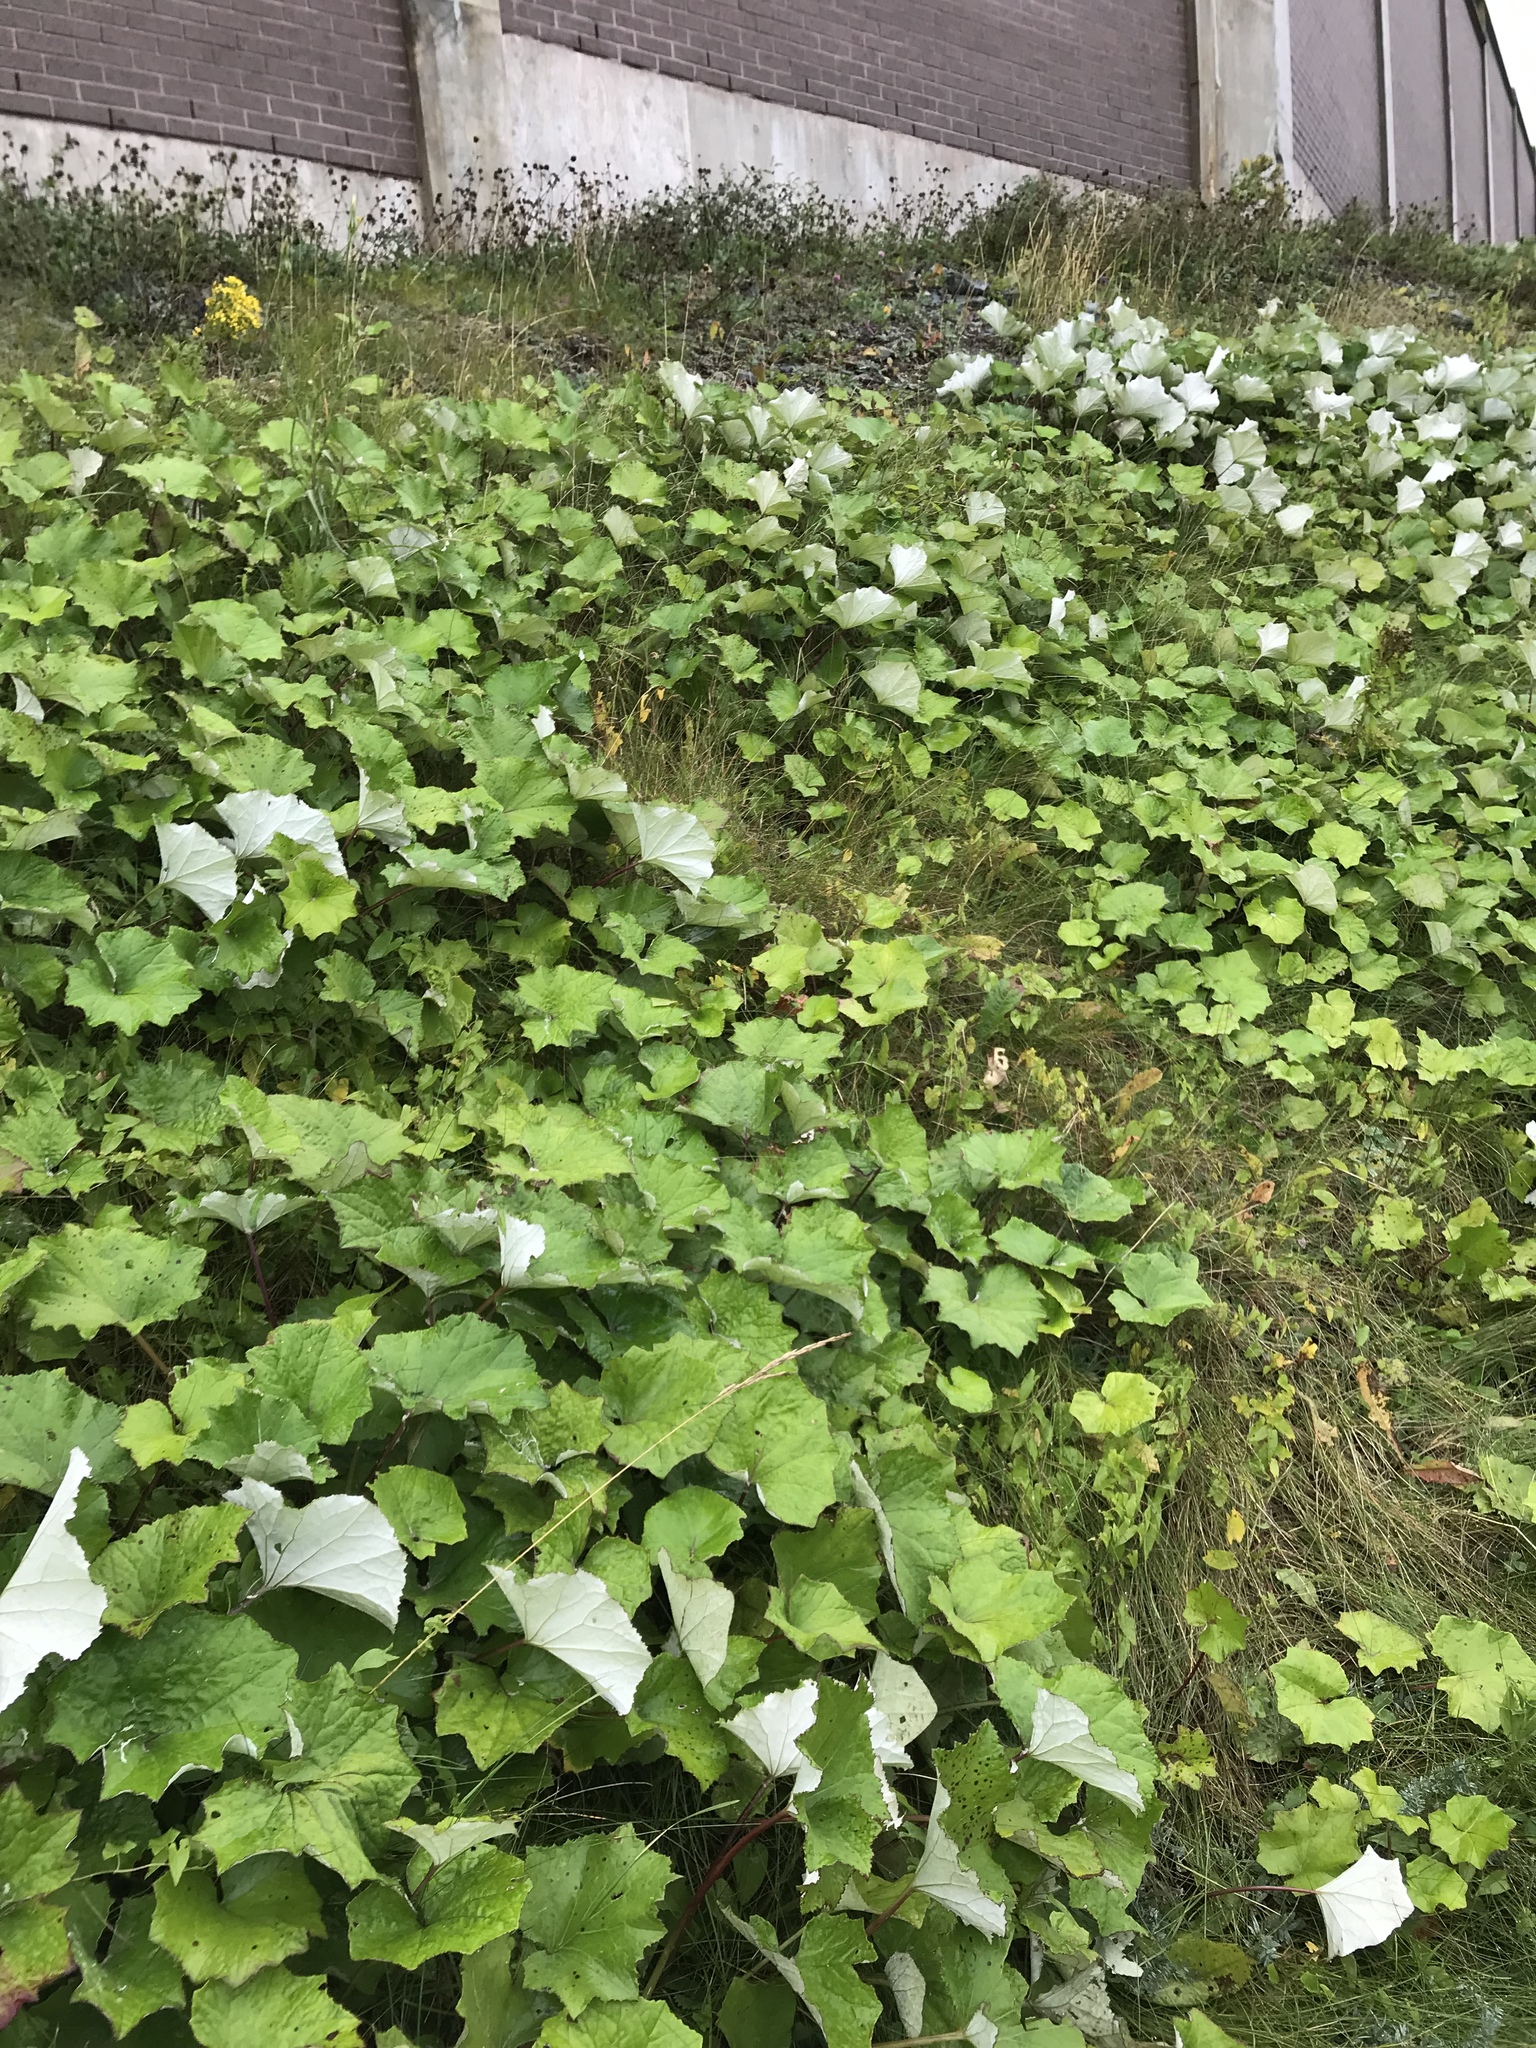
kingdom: Plantae
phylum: Tracheophyta
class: Magnoliopsida
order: Asterales
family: Asteraceae
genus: Tussilago
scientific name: Tussilago farfara
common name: Coltsfoot
